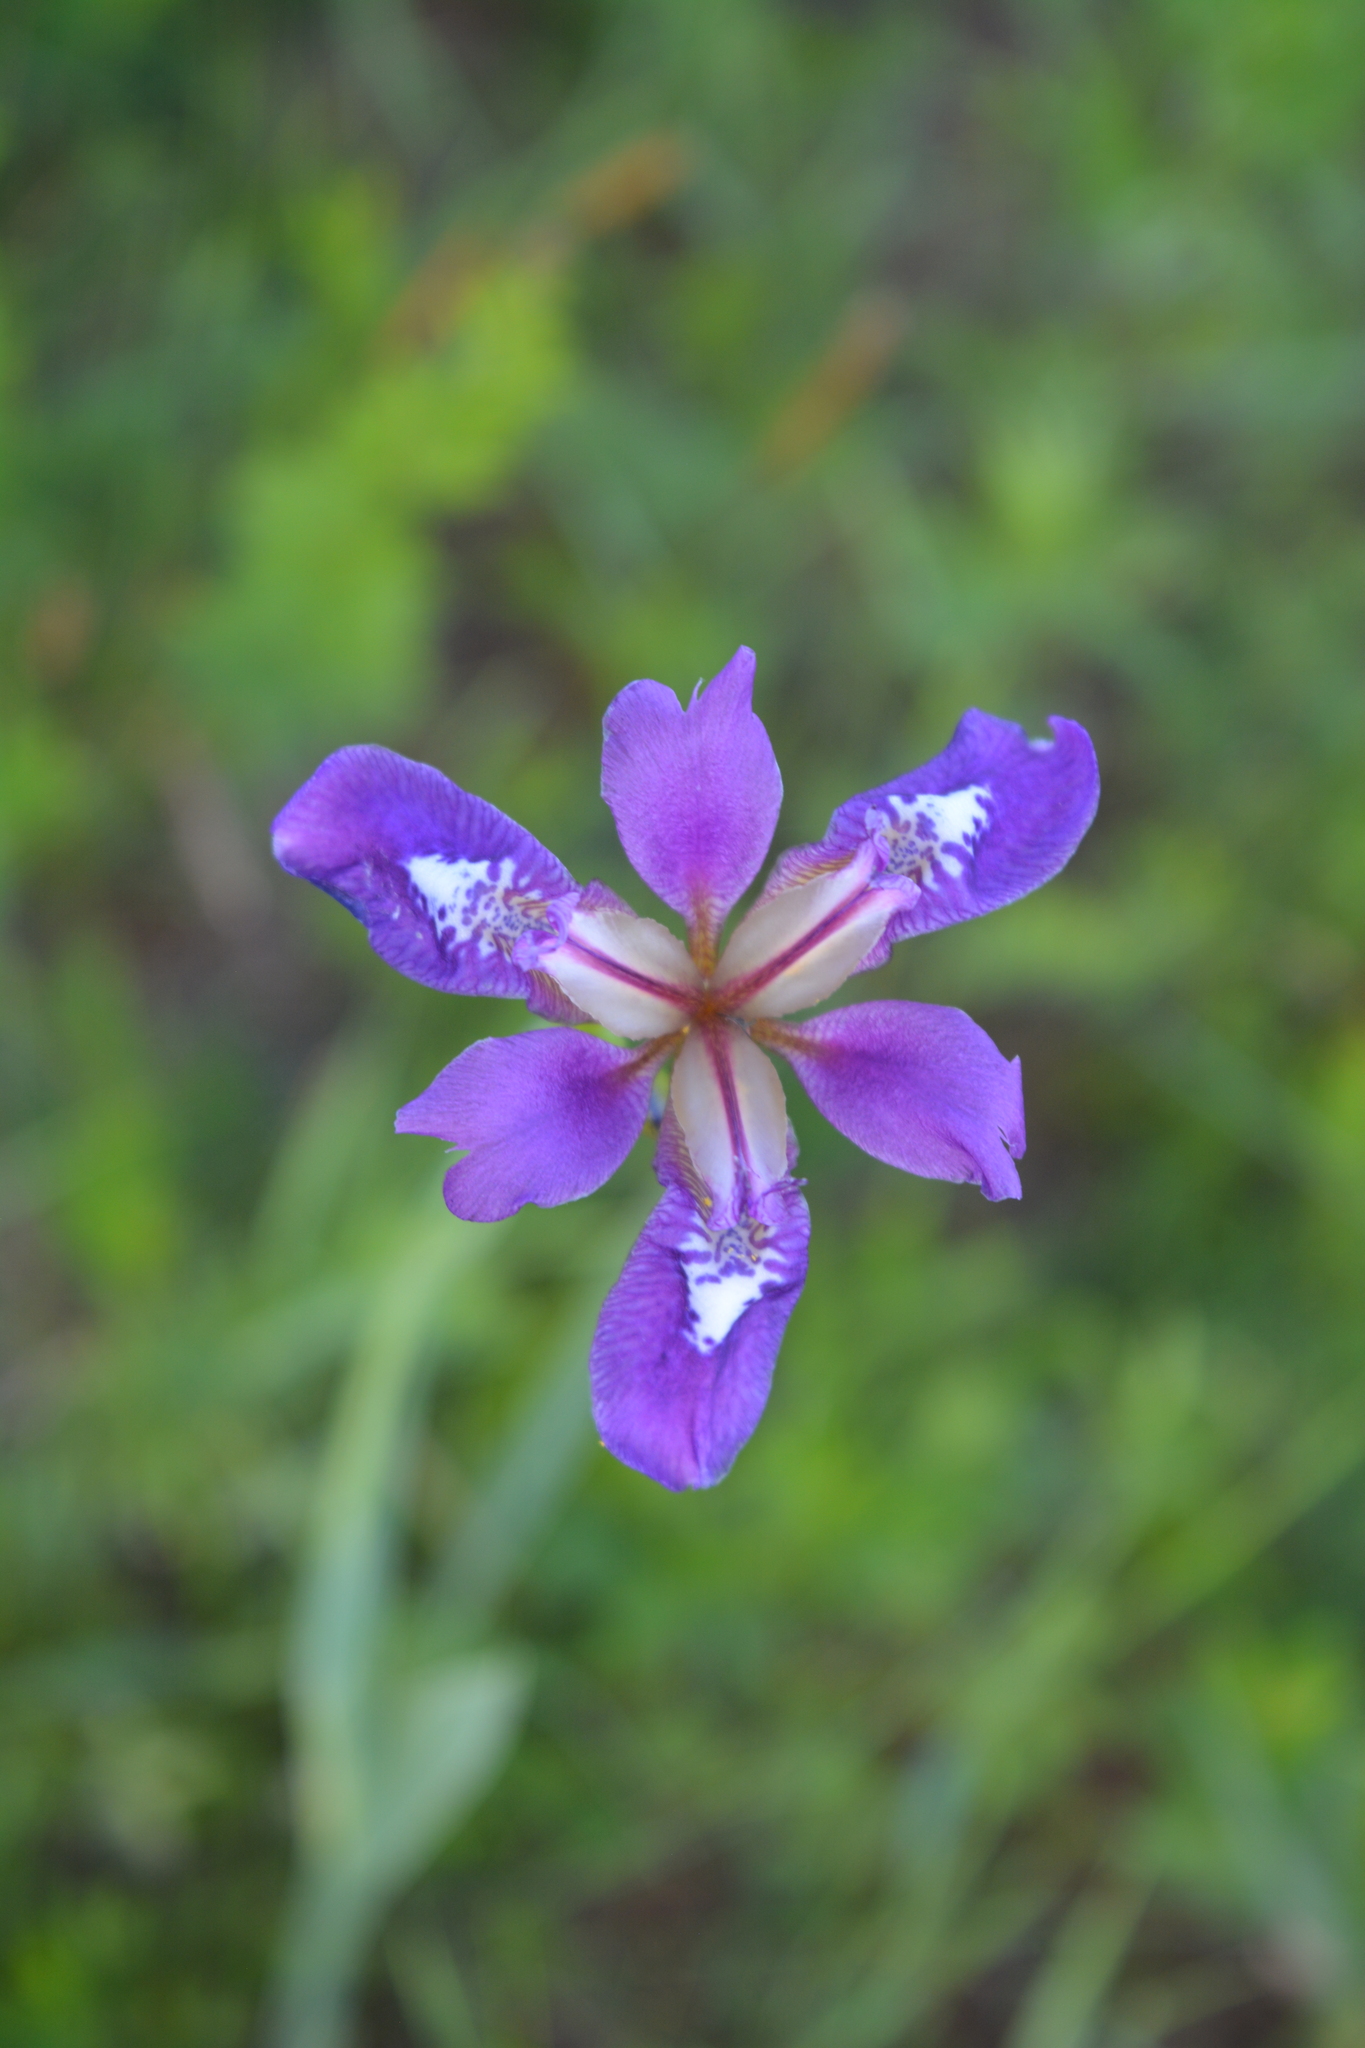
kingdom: Plantae
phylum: Tracheophyta
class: Liliopsida
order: Asparagales
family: Iridaceae
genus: Iris
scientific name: Iris dichotoma
